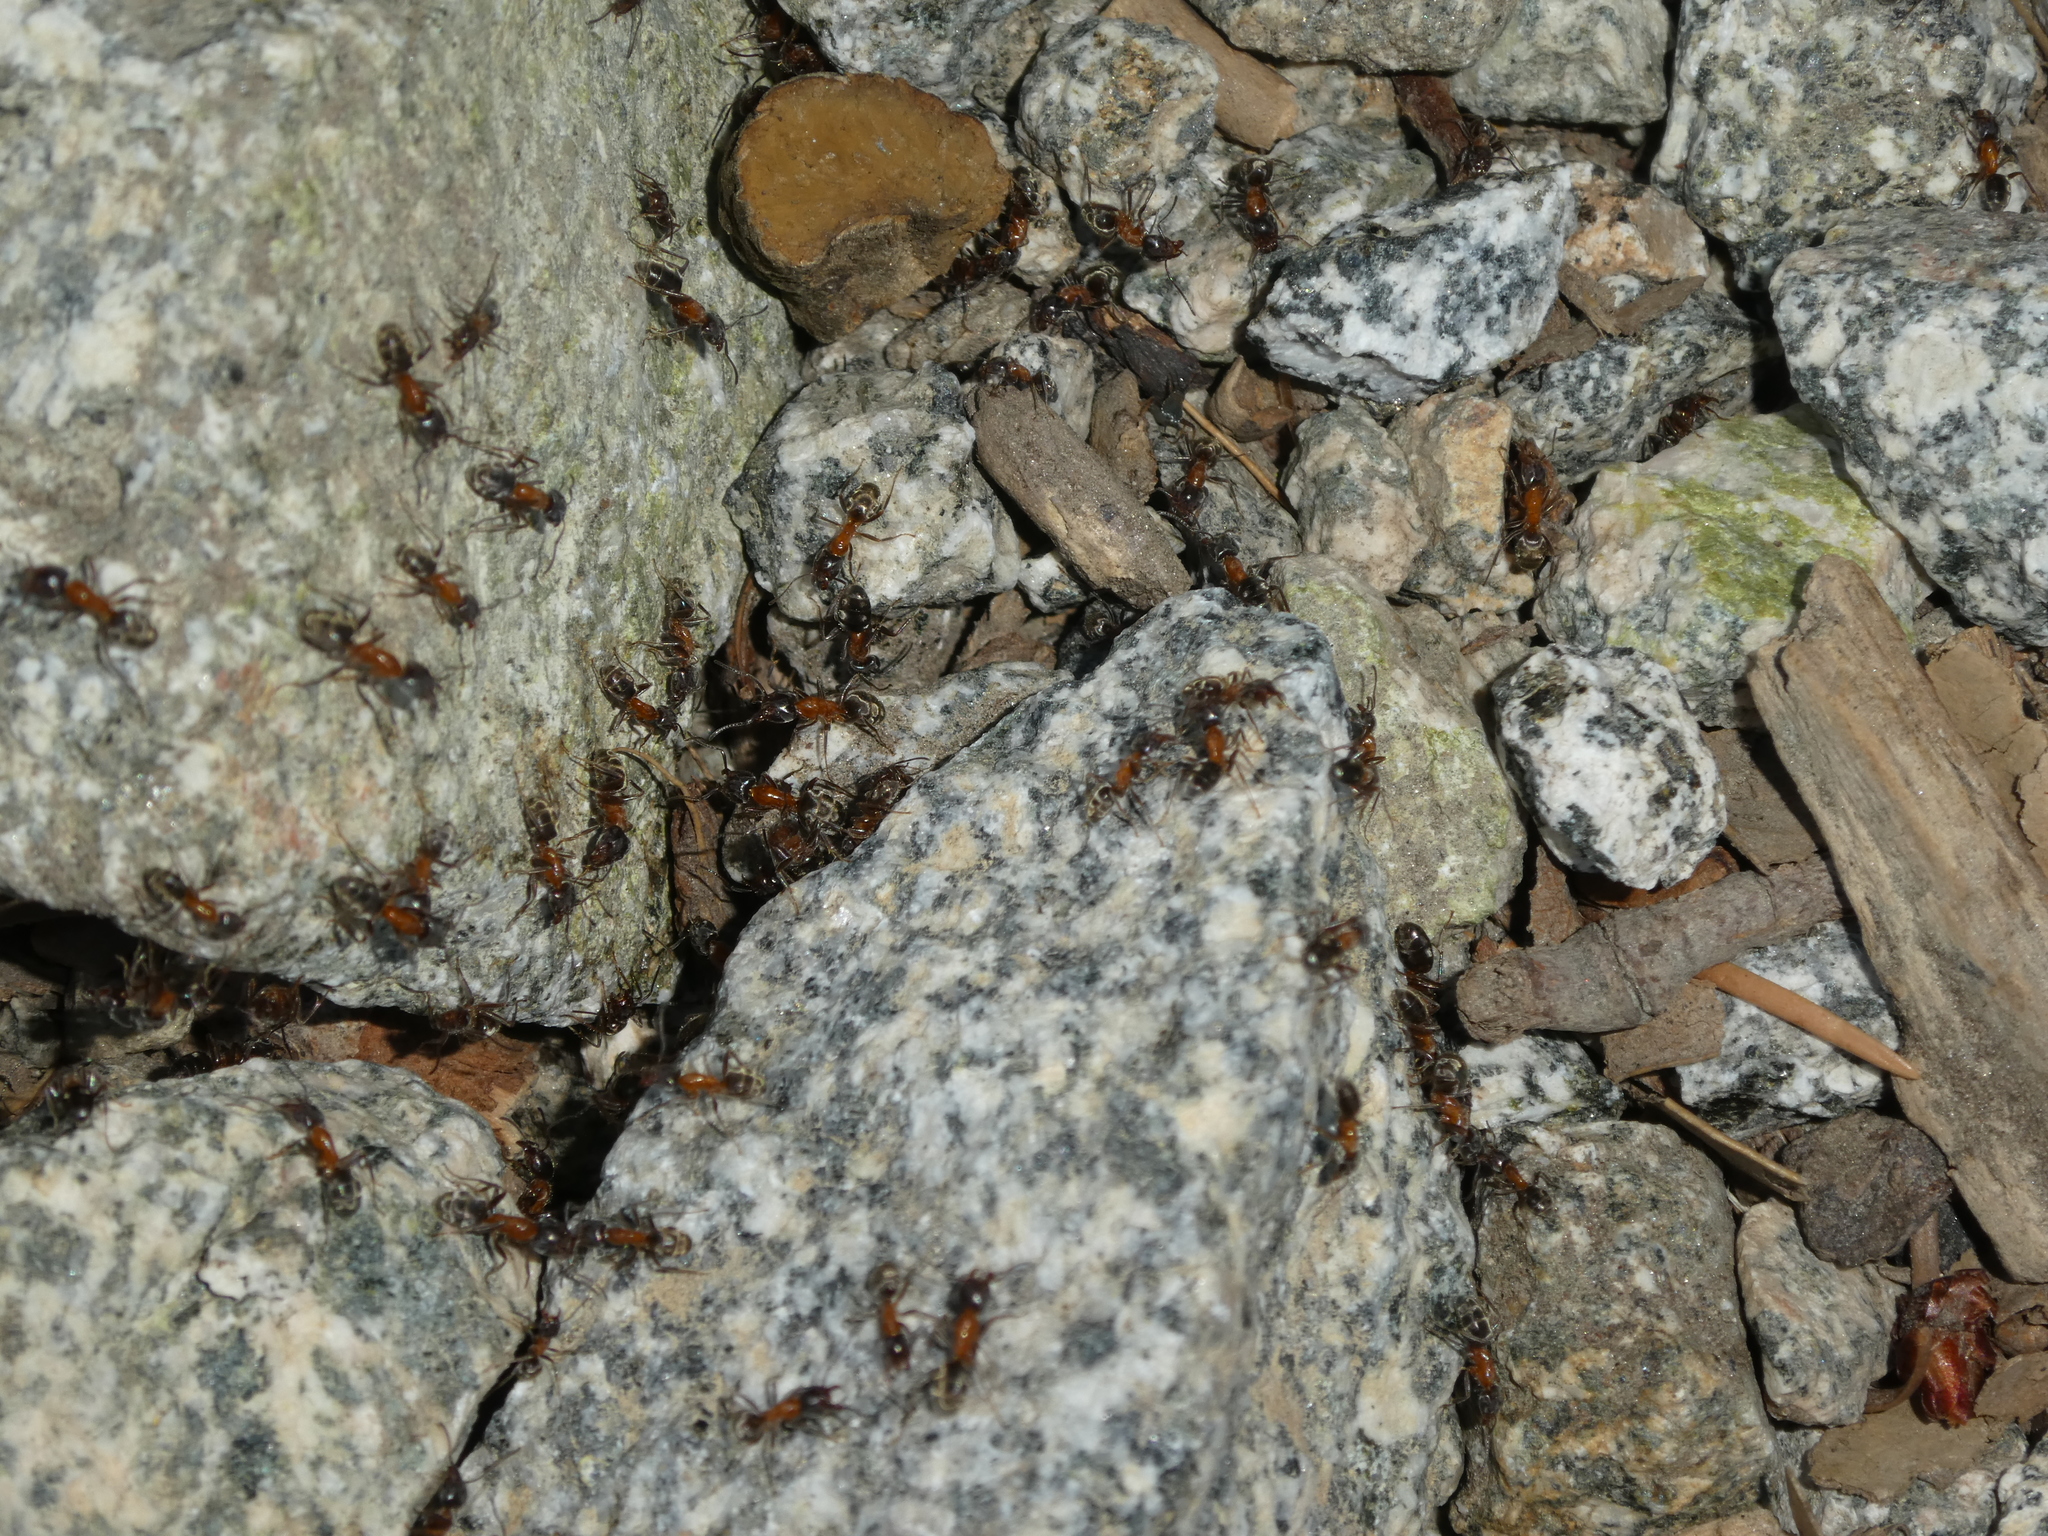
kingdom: Animalia
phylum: Arthropoda
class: Insecta
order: Hymenoptera
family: Formicidae
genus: Liometopum
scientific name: Liometopum occidentale
